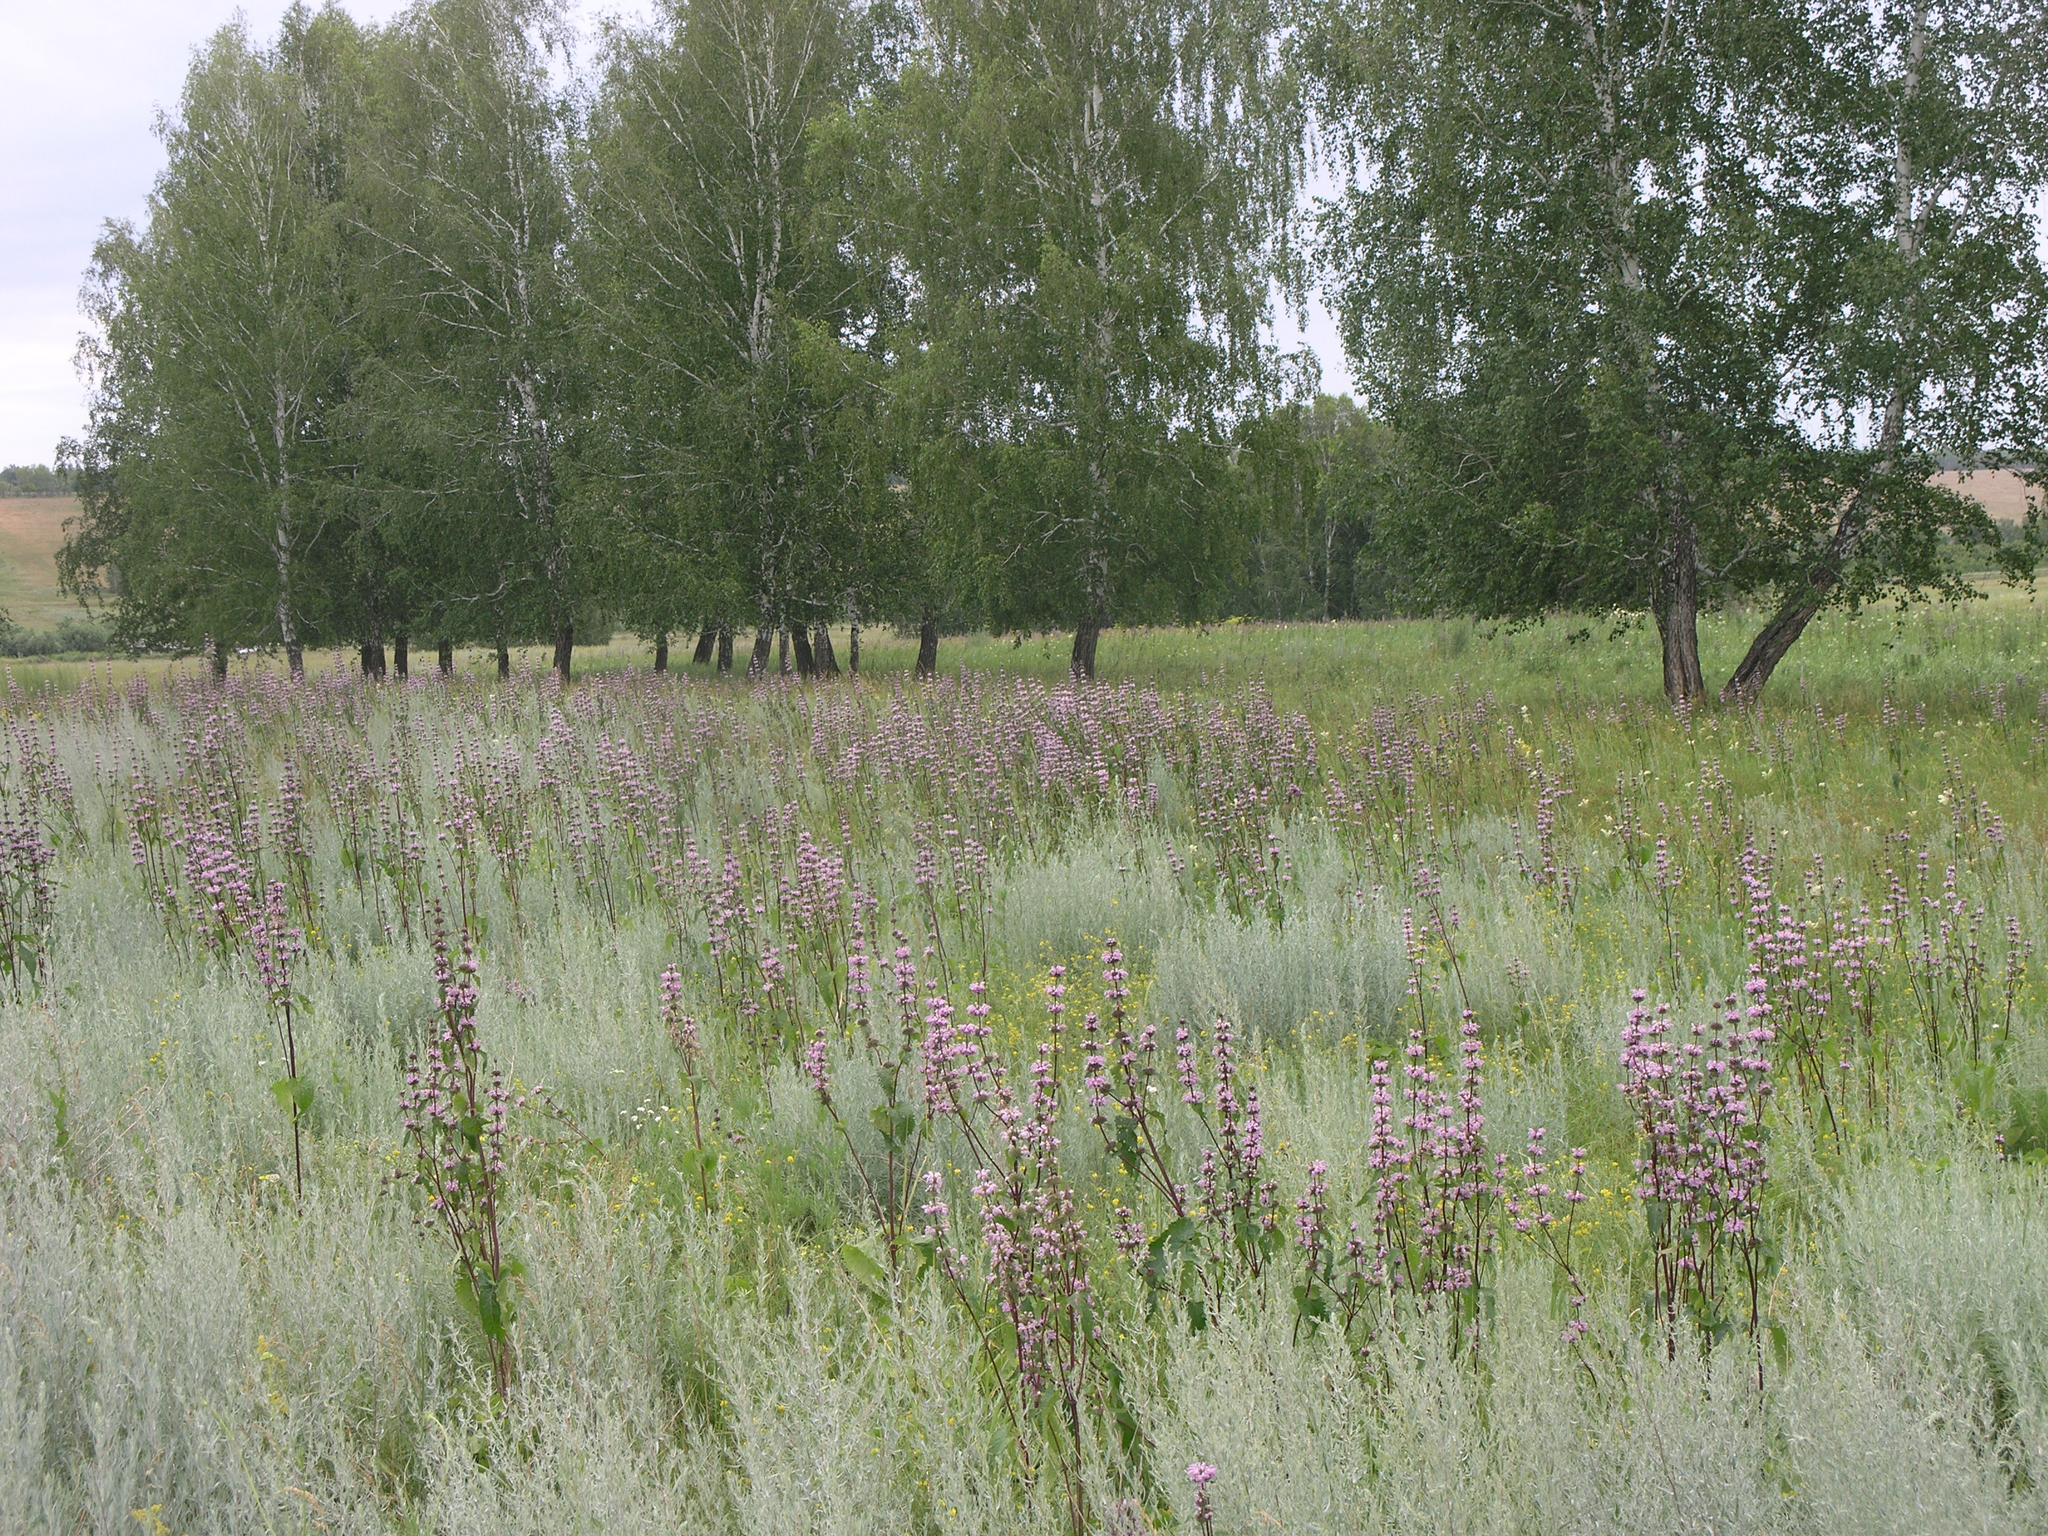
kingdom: Plantae
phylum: Tracheophyta
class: Magnoliopsida
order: Lamiales
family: Lamiaceae
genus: Phlomoides
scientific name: Phlomoides tuberosa
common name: Tuberous jerusalem sage
